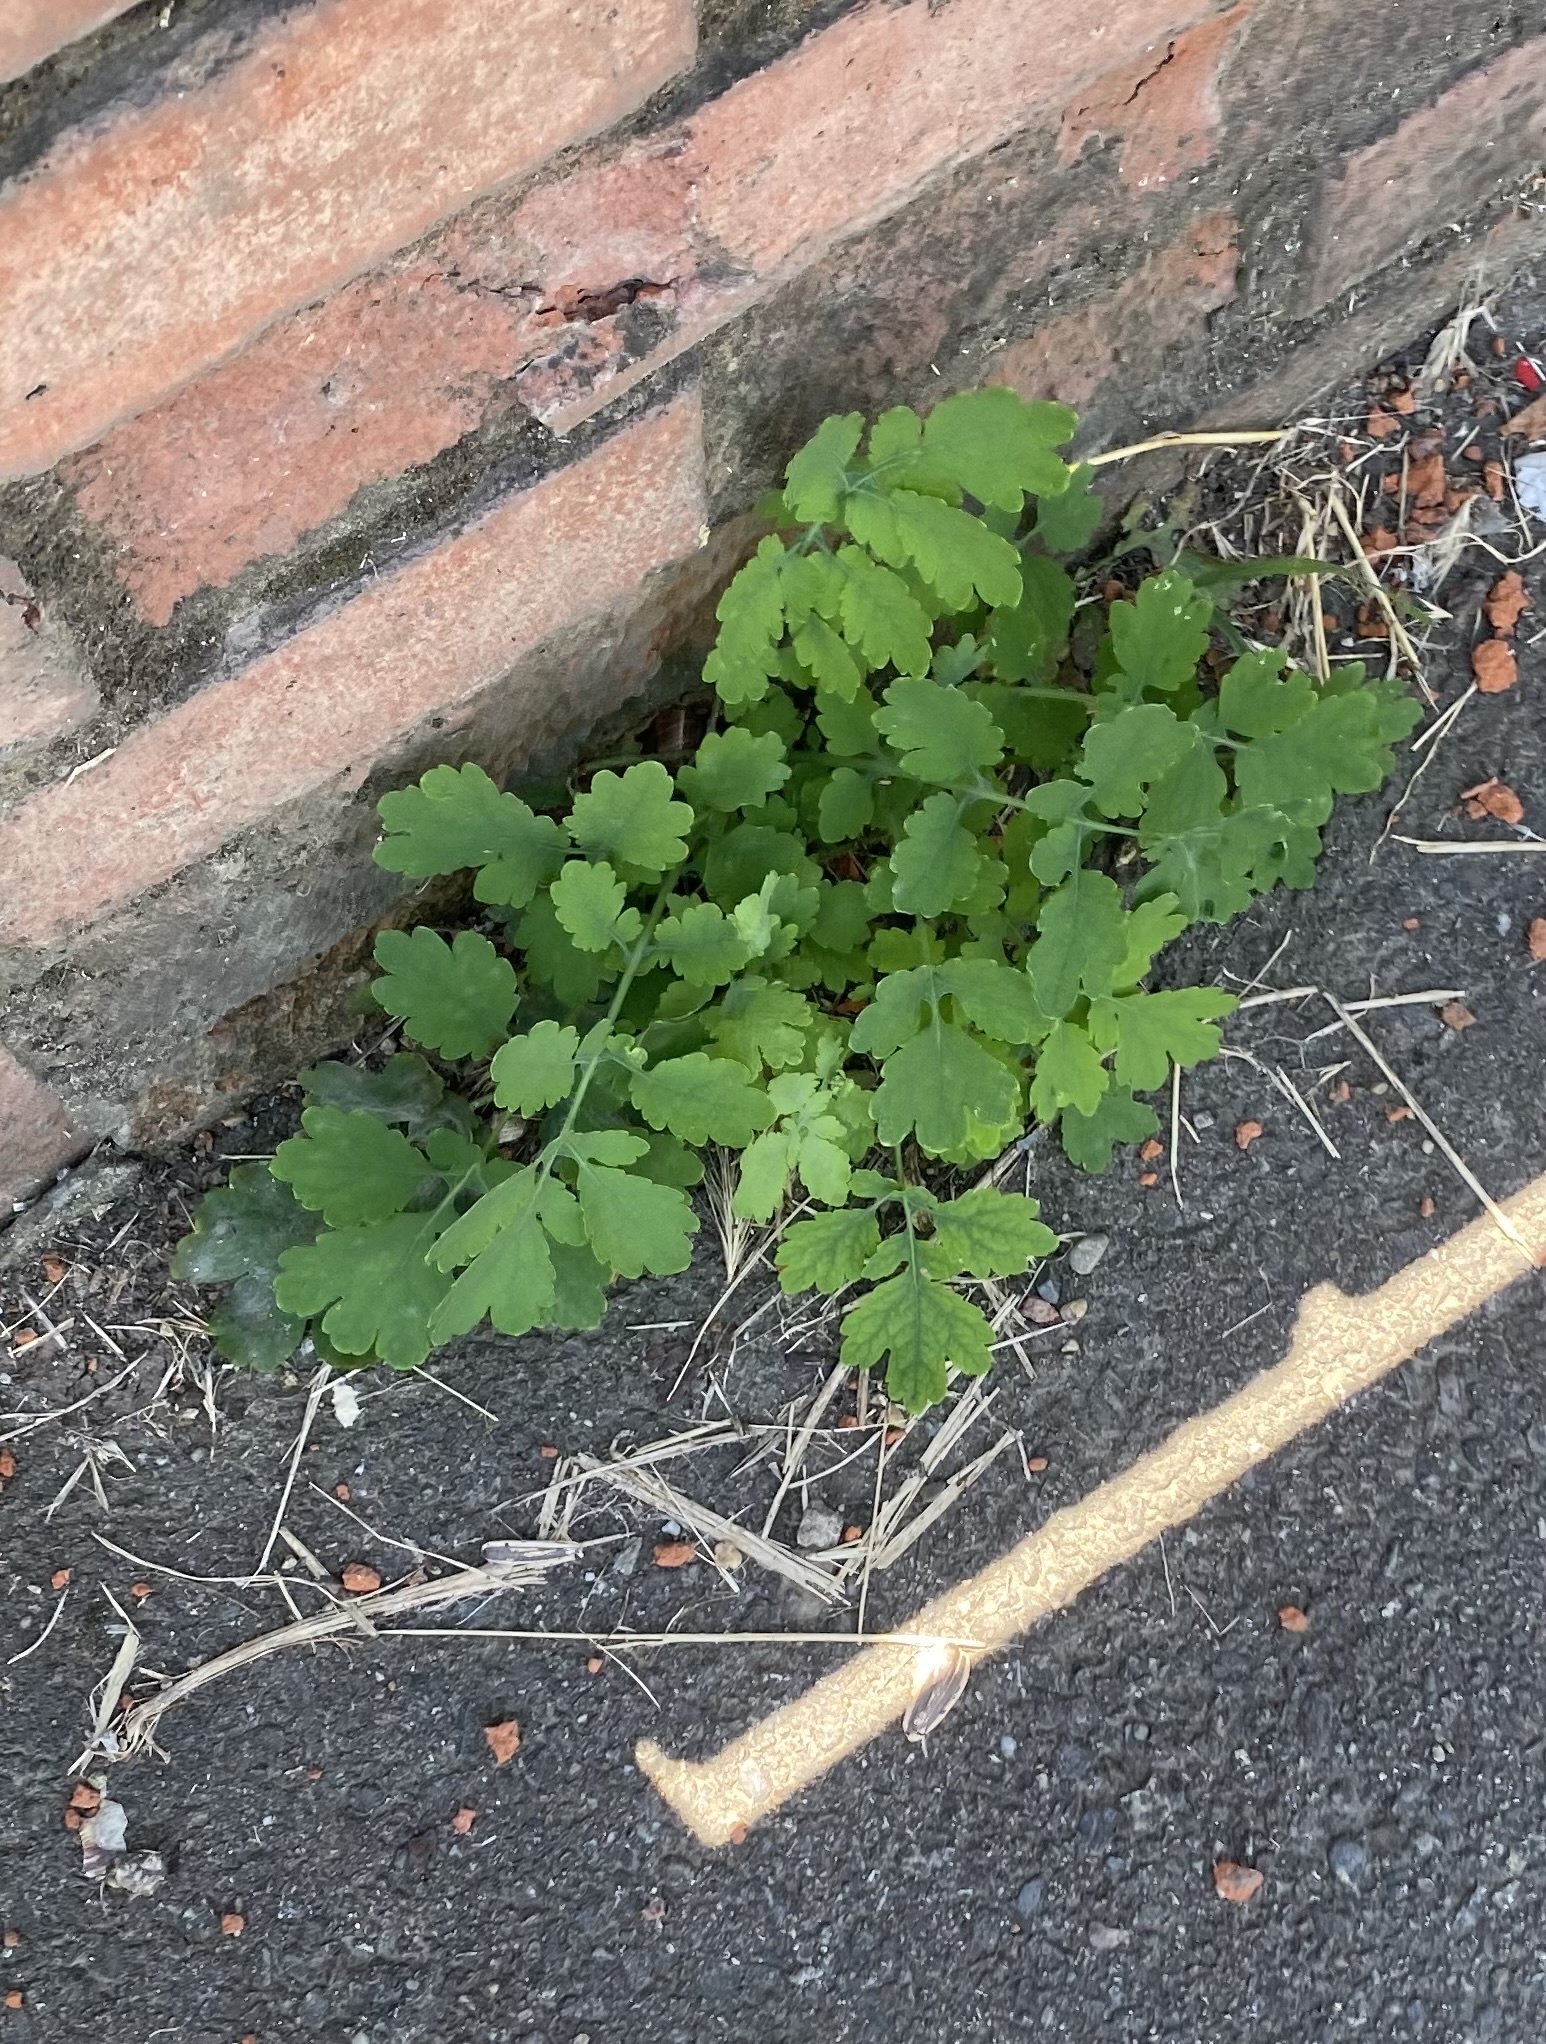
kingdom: Plantae
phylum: Tracheophyta
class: Magnoliopsida
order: Ranunculales
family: Papaveraceae
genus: Chelidonium
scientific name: Chelidonium majus
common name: Greater celandine
